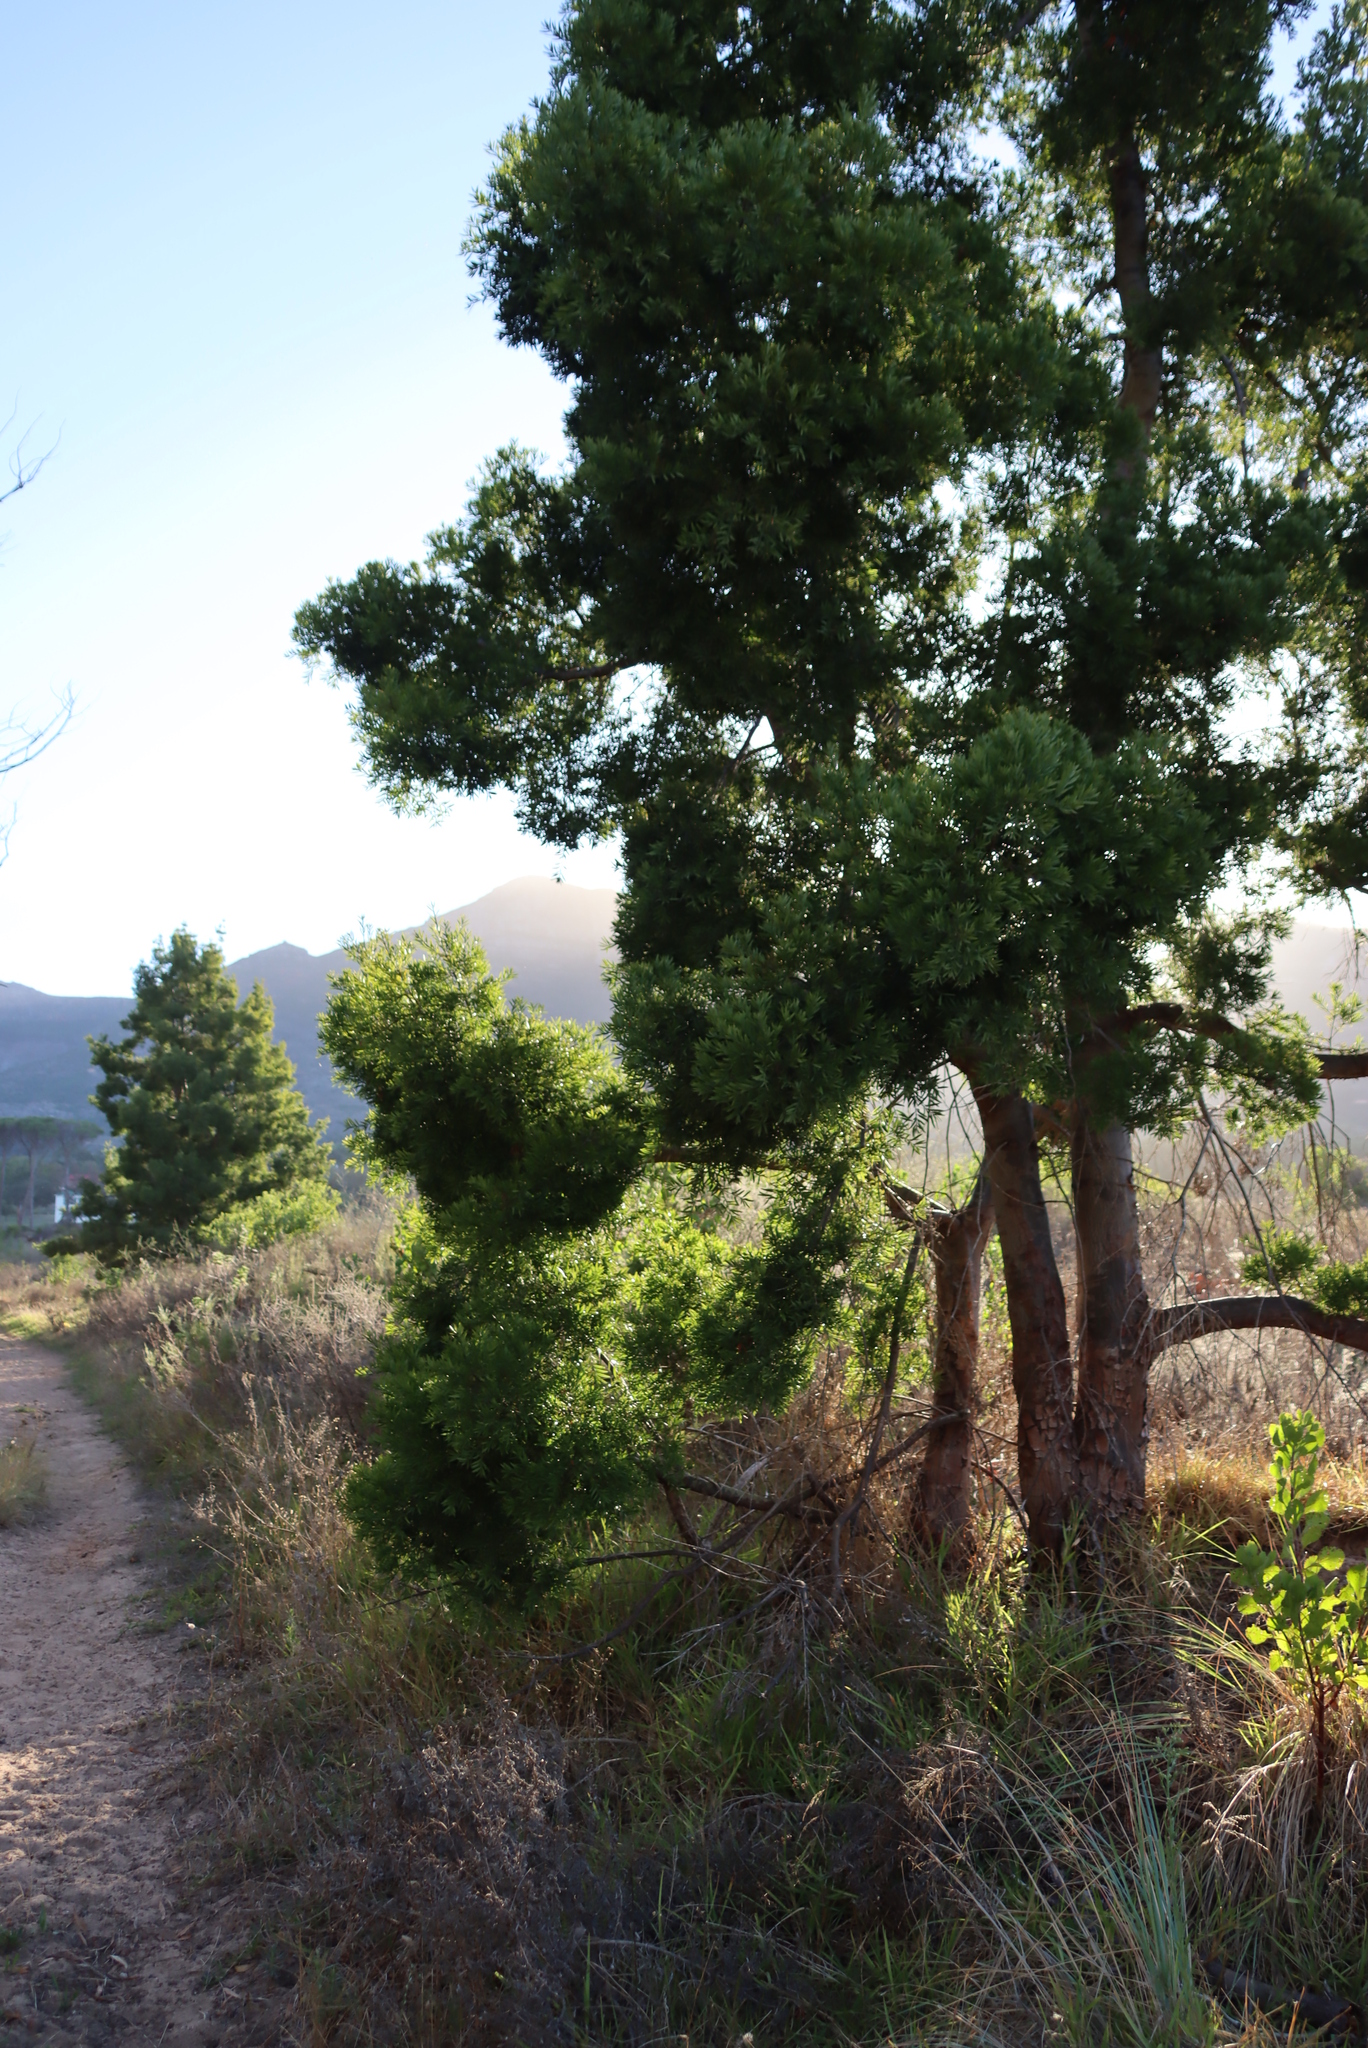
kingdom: Plantae
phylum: Tracheophyta
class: Pinopsida
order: Pinales
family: Podocarpaceae
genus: Afrocarpus
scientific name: Afrocarpus falcatus
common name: Bastard yellowwood
